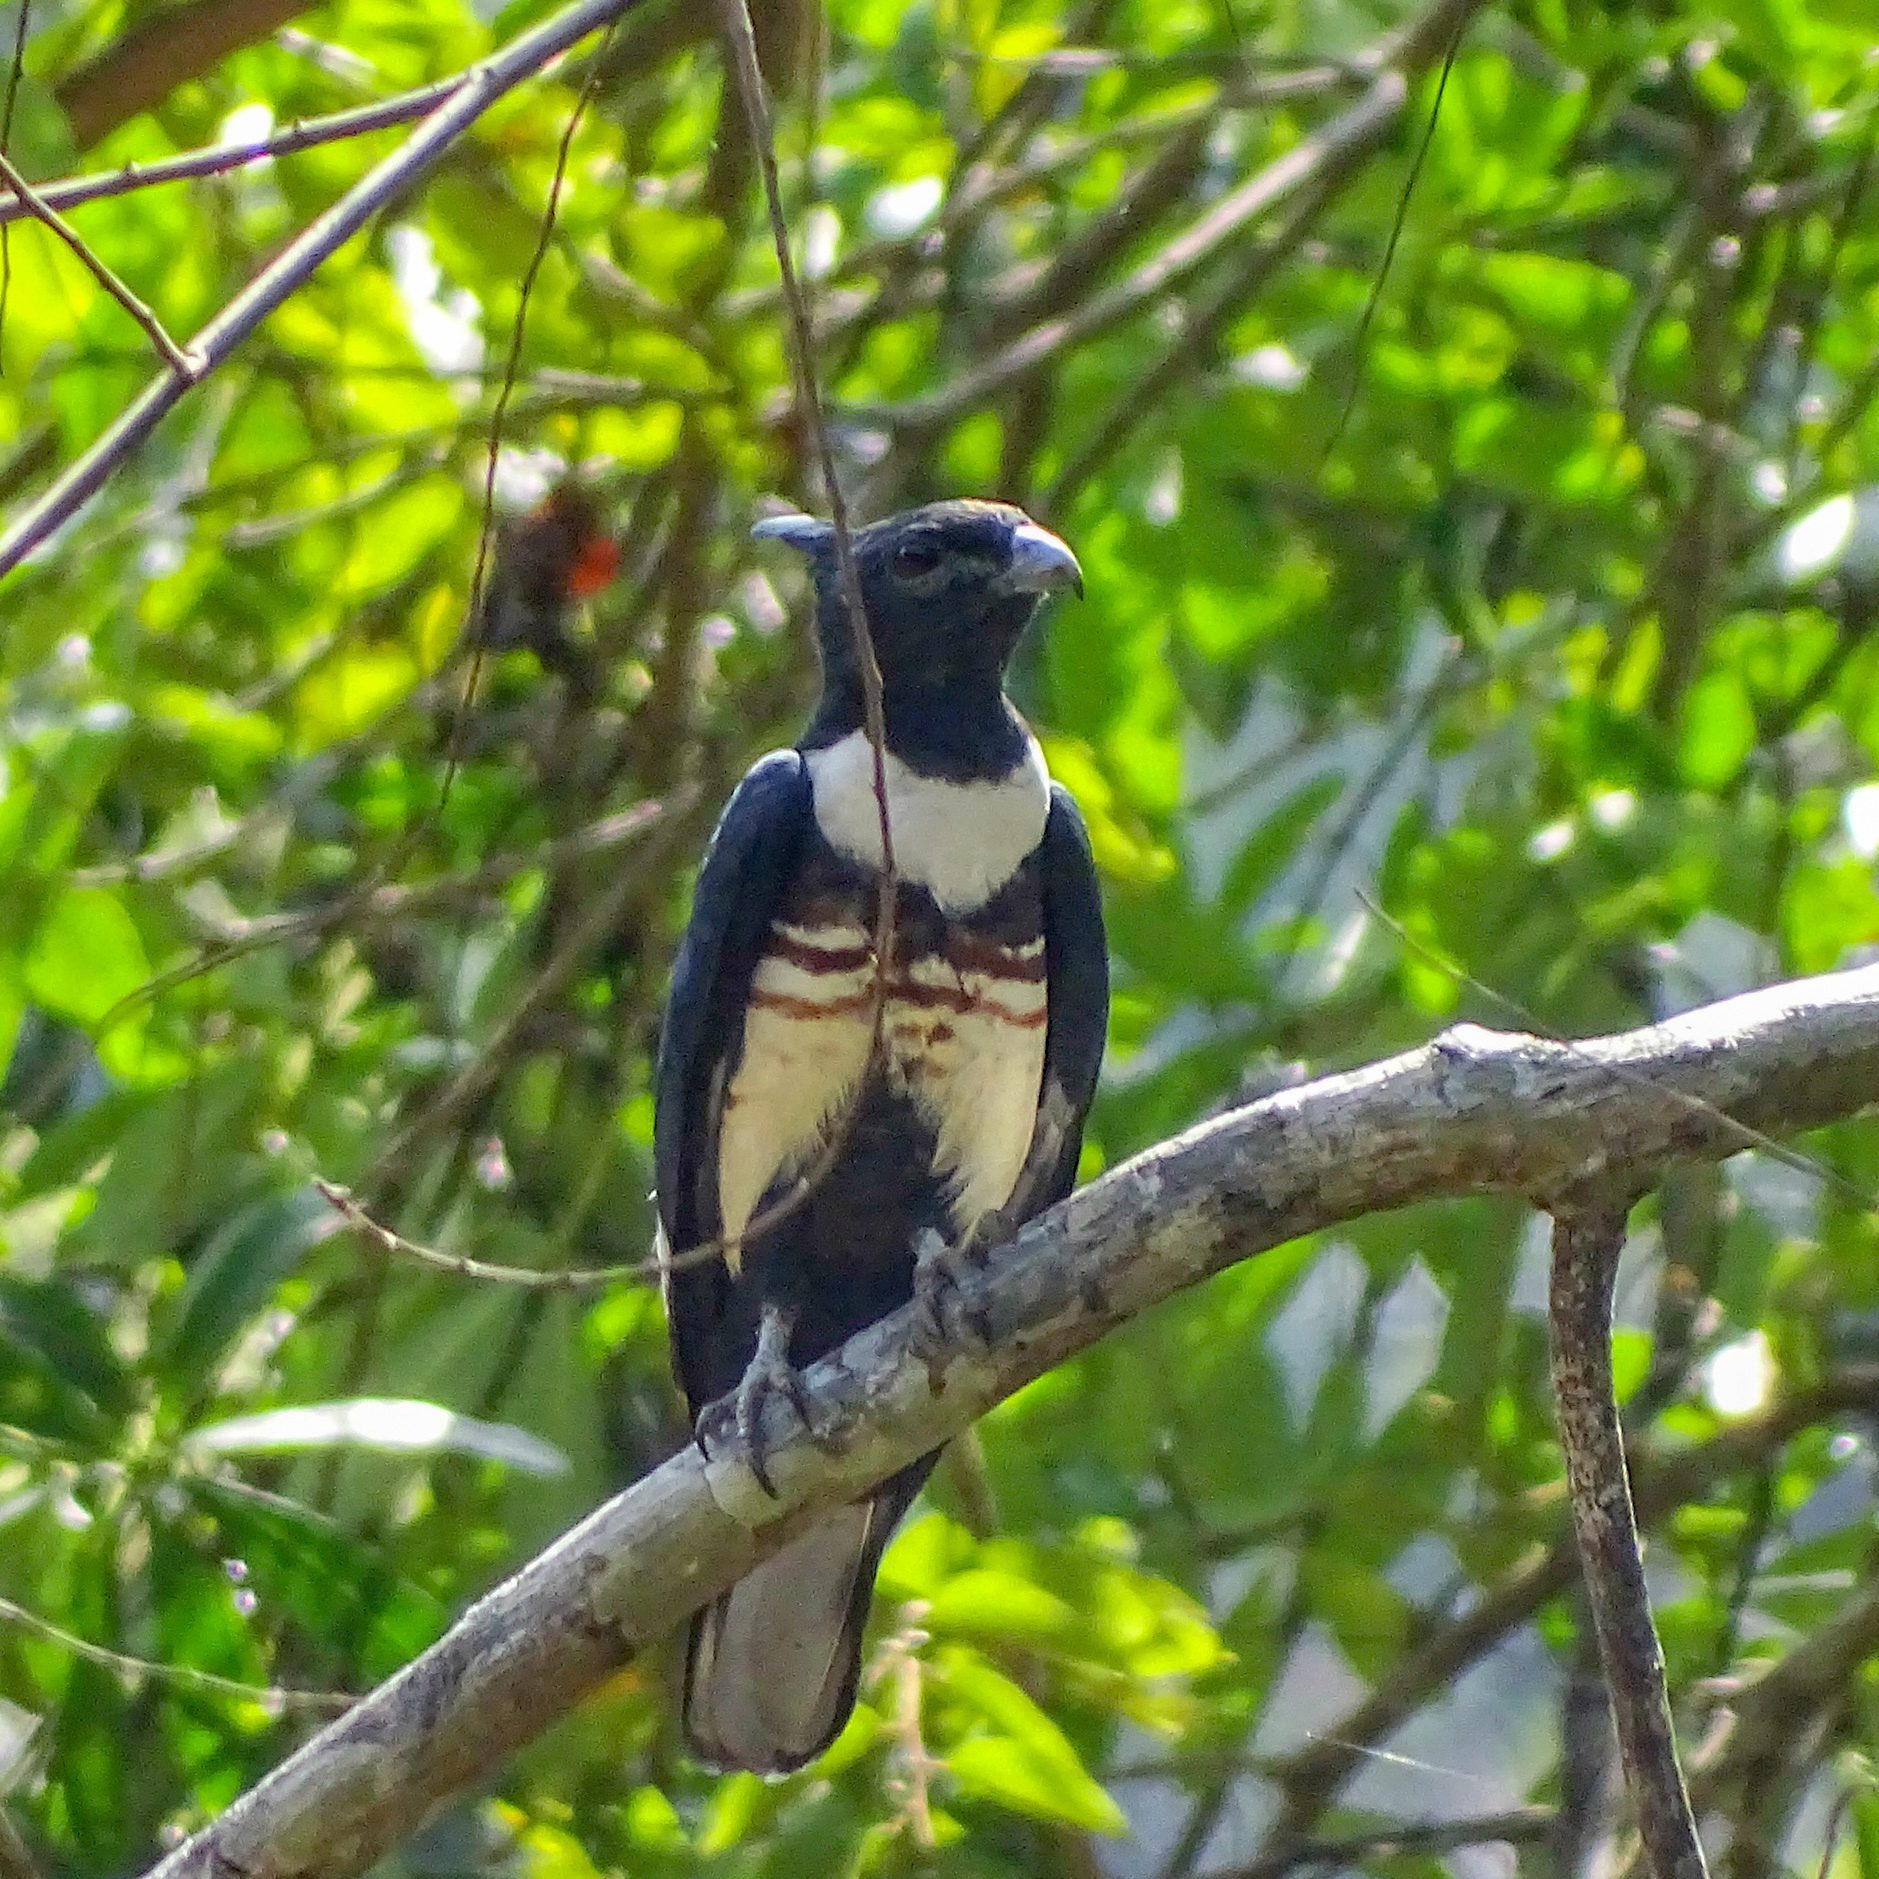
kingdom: Animalia
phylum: Chordata
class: Aves
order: Accipitriformes
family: Accipitridae
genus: Aviceda
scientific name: Aviceda leuphotes
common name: Black baza
